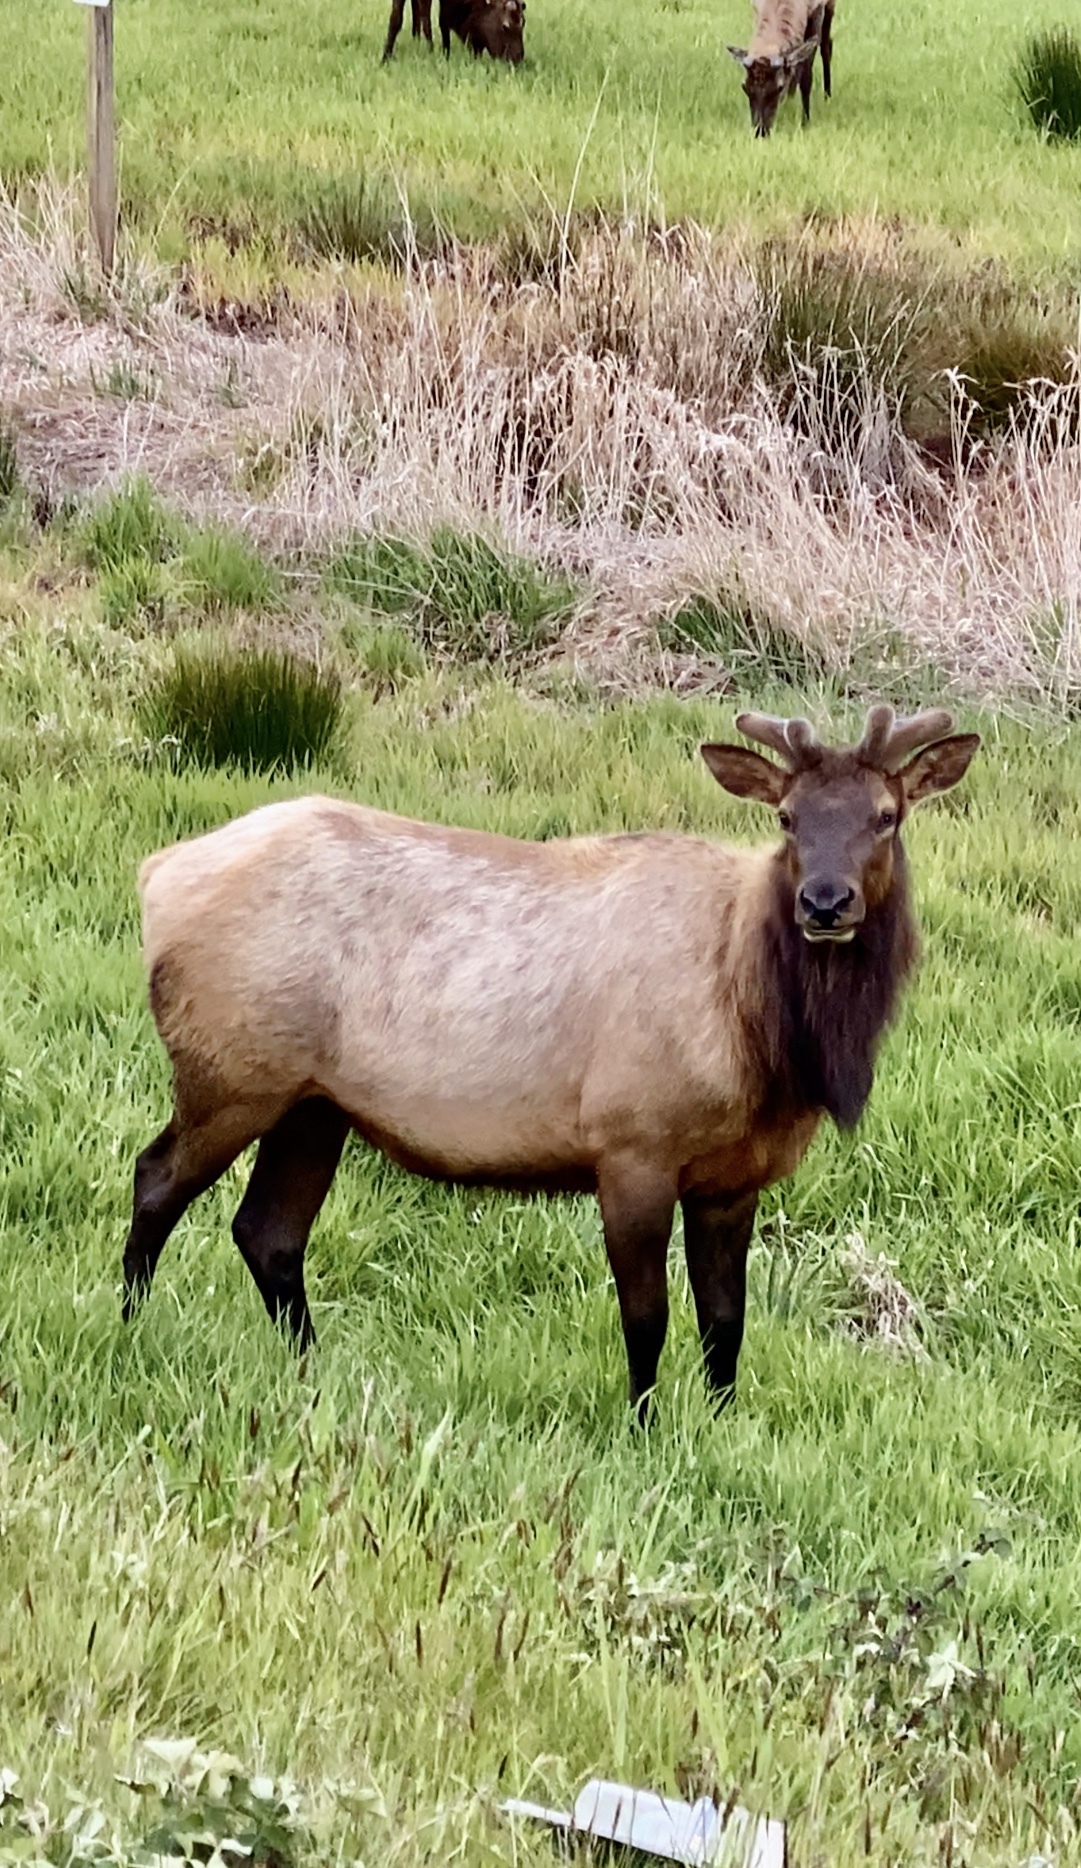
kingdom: Animalia
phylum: Chordata
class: Mammalia
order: Artiodactyla
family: Cervidae
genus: Cervus
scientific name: Cervus elaphus
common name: Red deer
